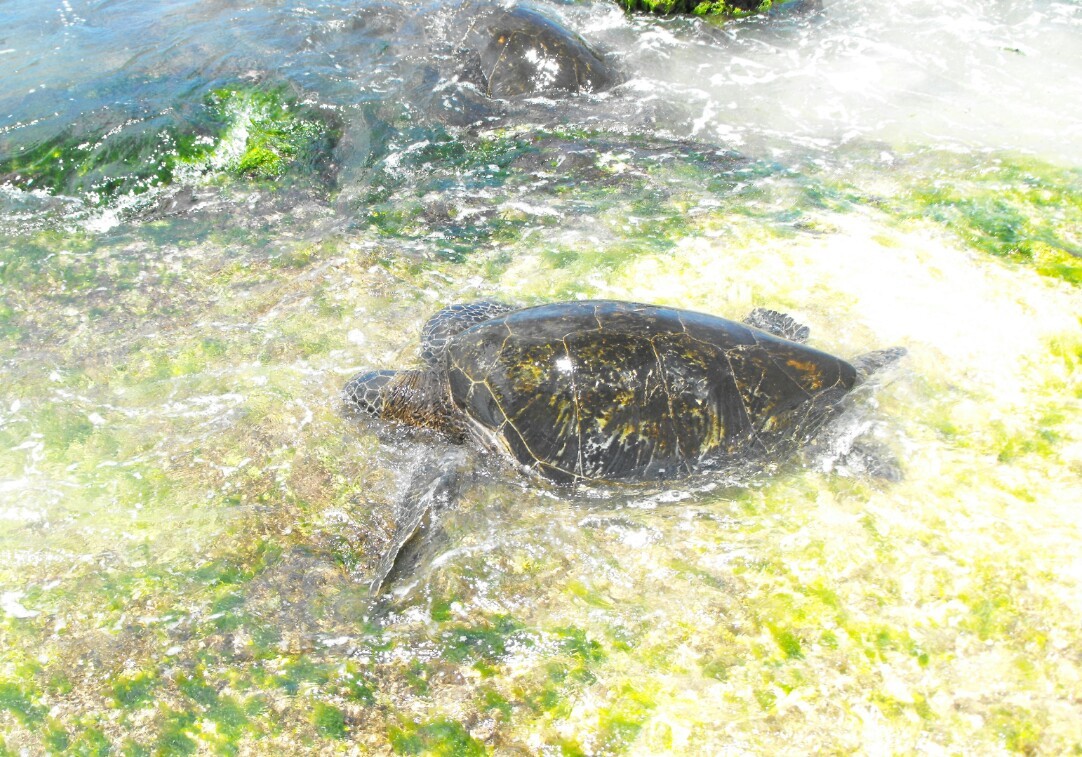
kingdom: Animalia
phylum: Chordata
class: Testudines
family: Cheloniidae
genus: Chelonia
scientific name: Chelonia mydas
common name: Green turtle
